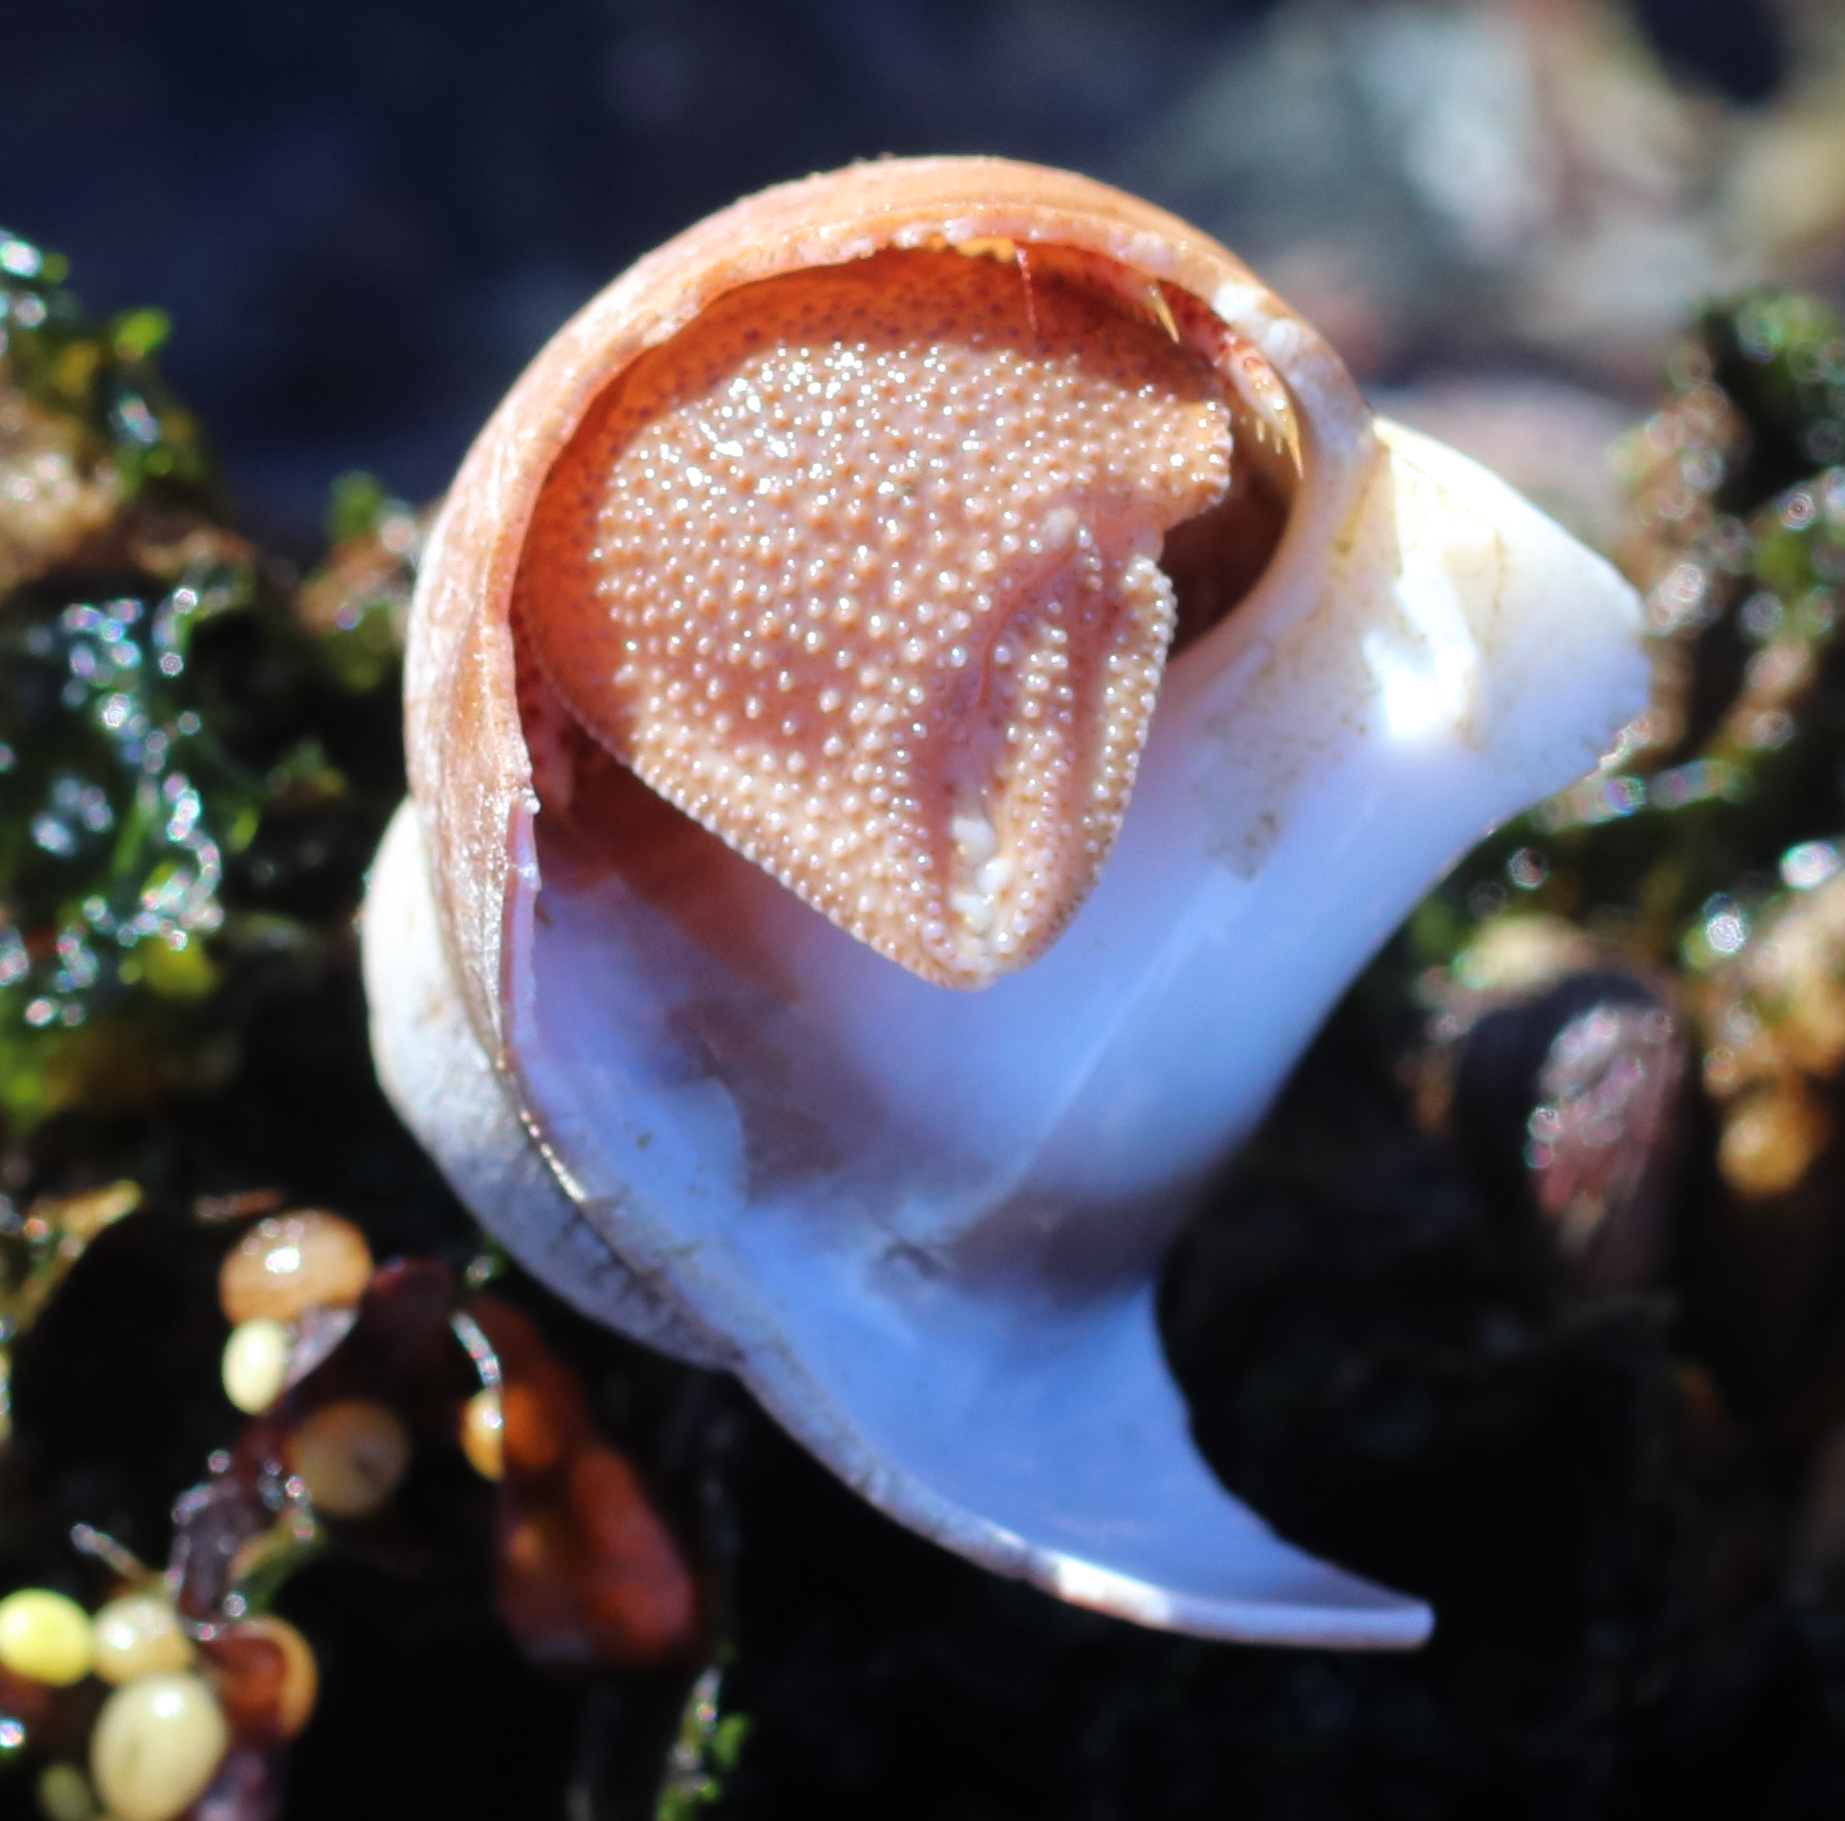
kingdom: Animalia
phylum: Arthropoda
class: Malacostraca
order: Decapoda
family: Paguridae
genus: Elassochirus
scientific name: Elassochirus tenuimanus
